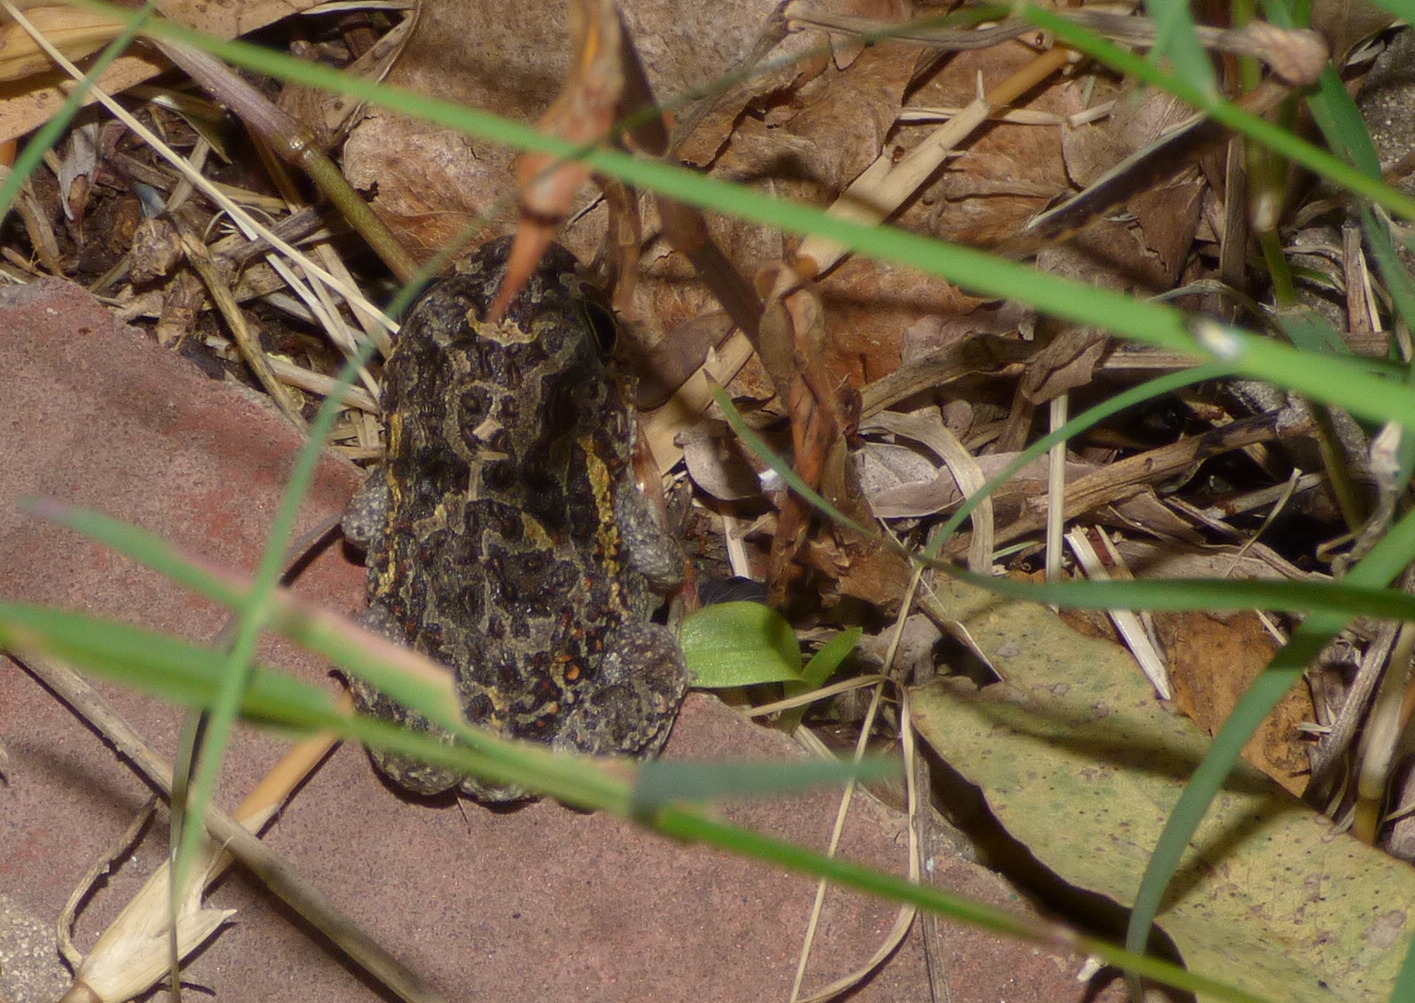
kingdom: Animalia
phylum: Chordata
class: Amphibia
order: Anura
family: Odontophrynidae
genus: Odontophrynus
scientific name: Odontophrynus
